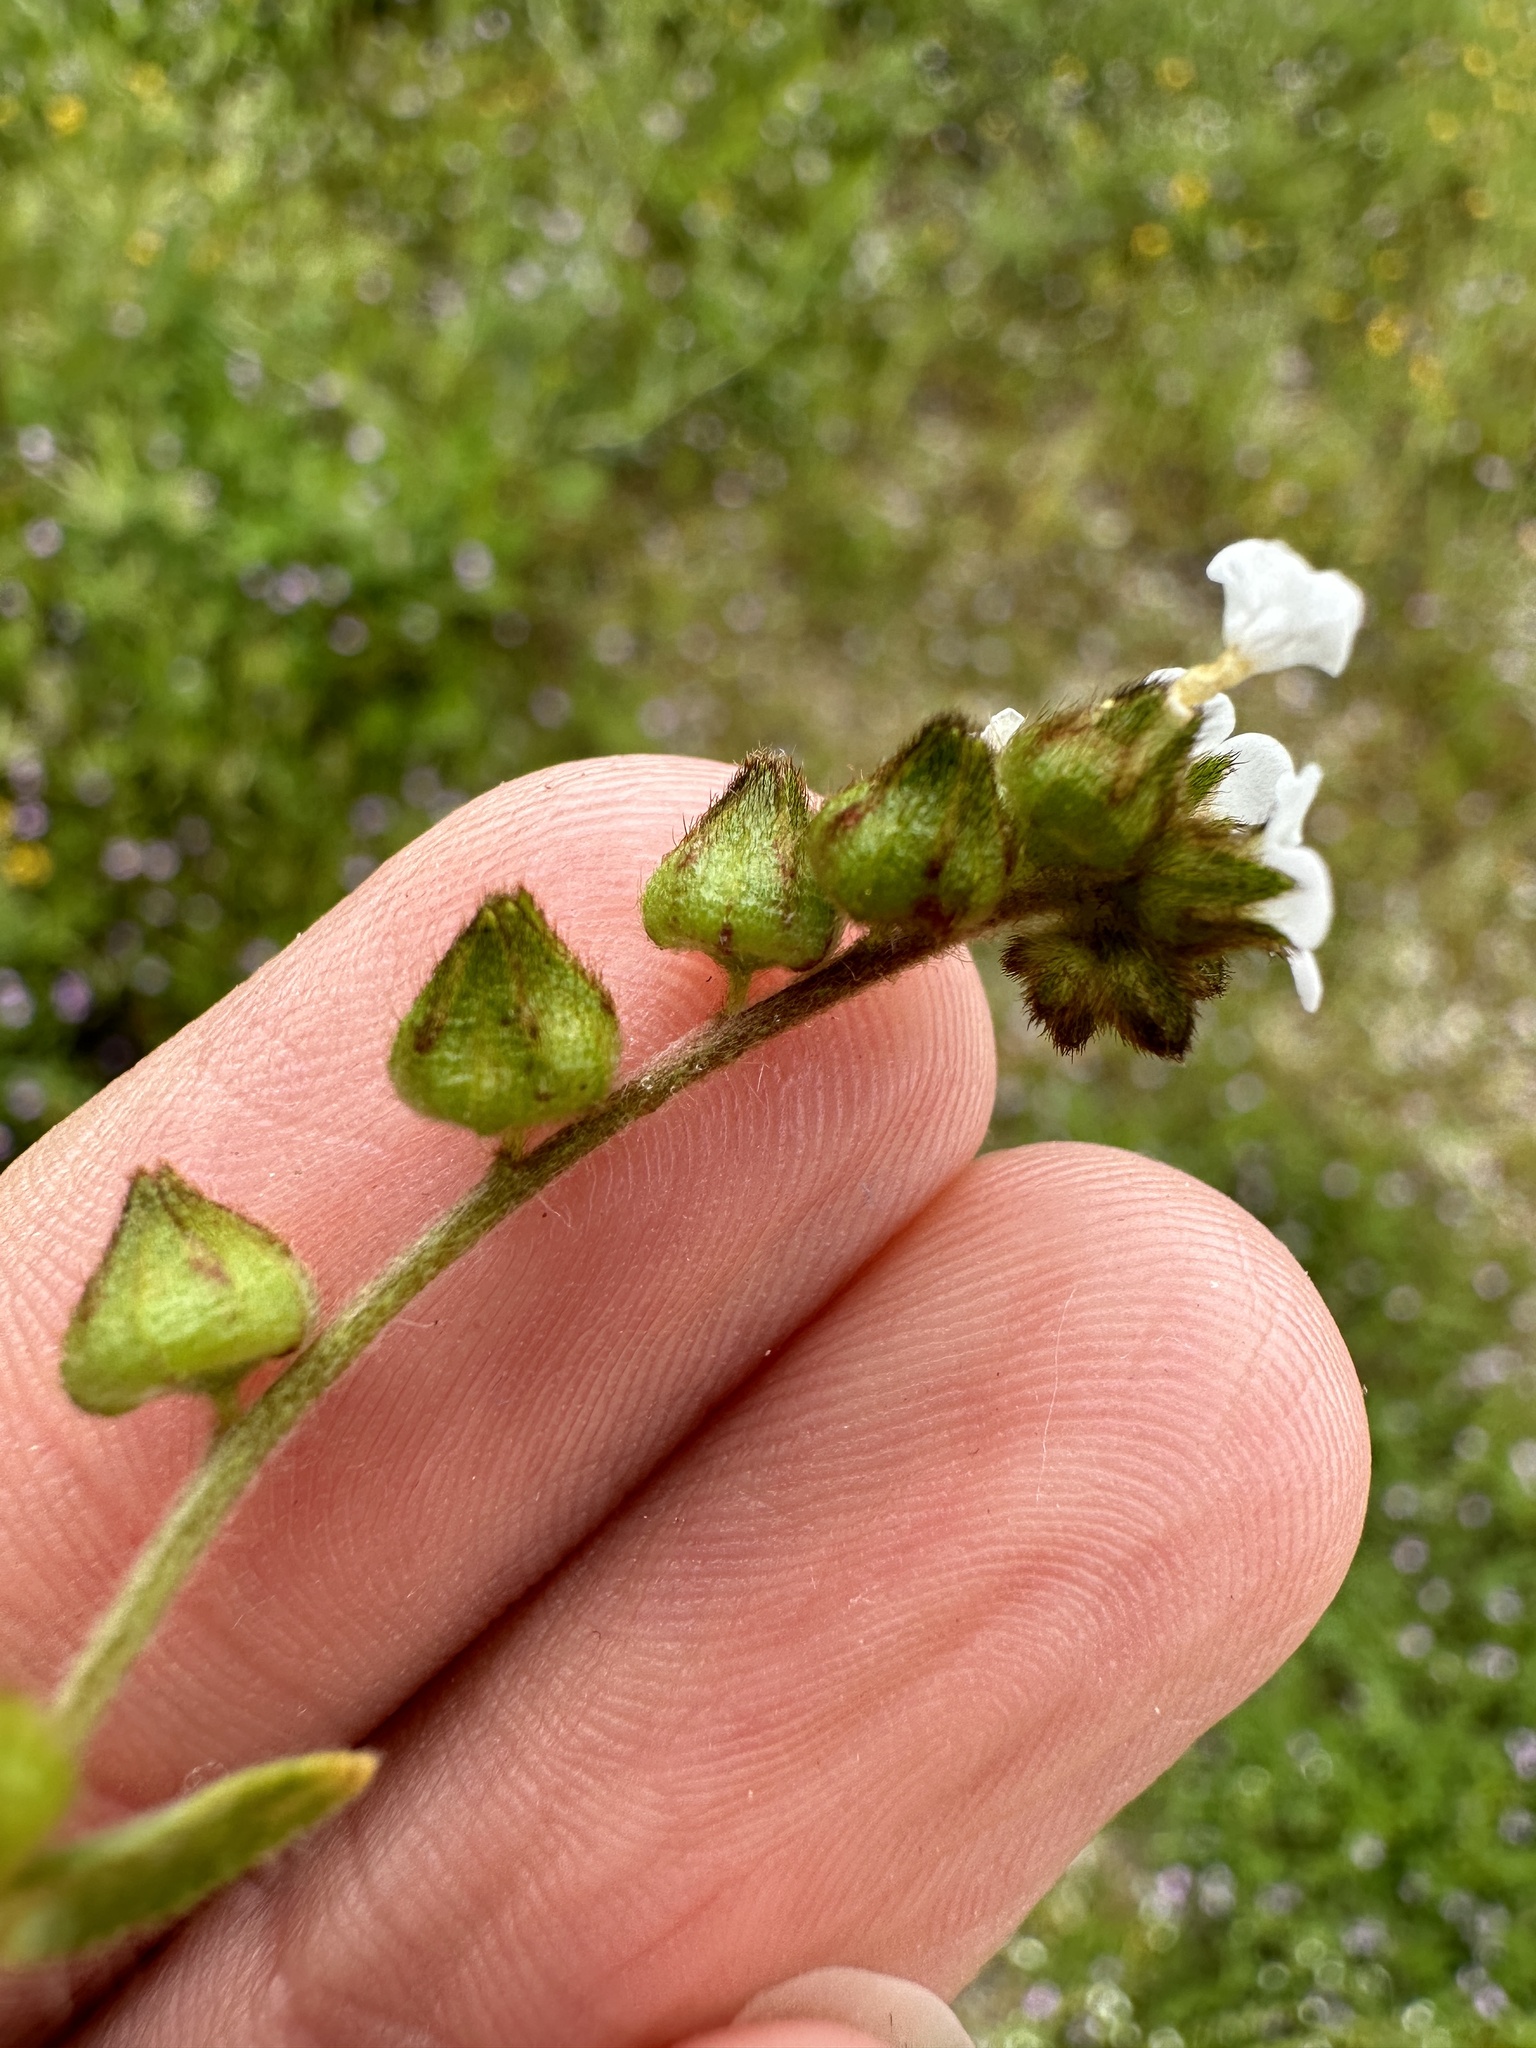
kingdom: Plantae
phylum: Tracheophyta
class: Magnoliopsida
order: Boraginales
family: Boraginaceae
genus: Plagiobothrys
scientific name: Plagiobothrys canescens
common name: Valley popcorn-flower
